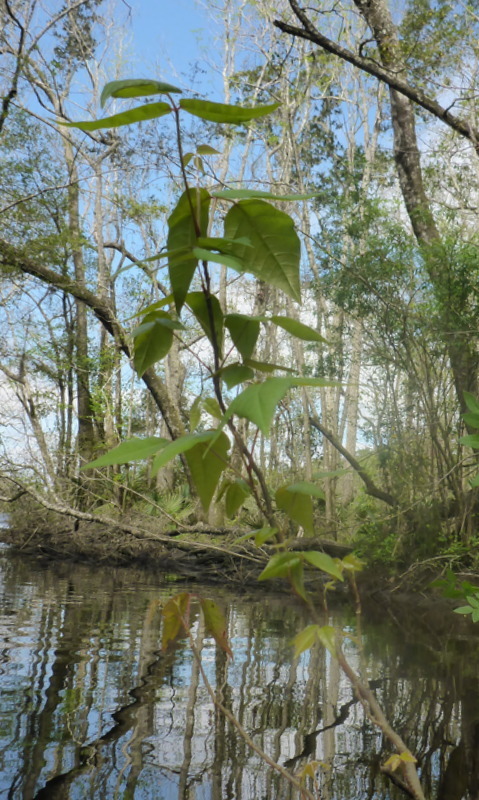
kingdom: Plantae
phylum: Tracheophyta
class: Magnoliopsida
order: Sapindales
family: Anacardiaceae
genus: Toxicodendron
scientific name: Toxicodendron radicans
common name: Poison ivy
